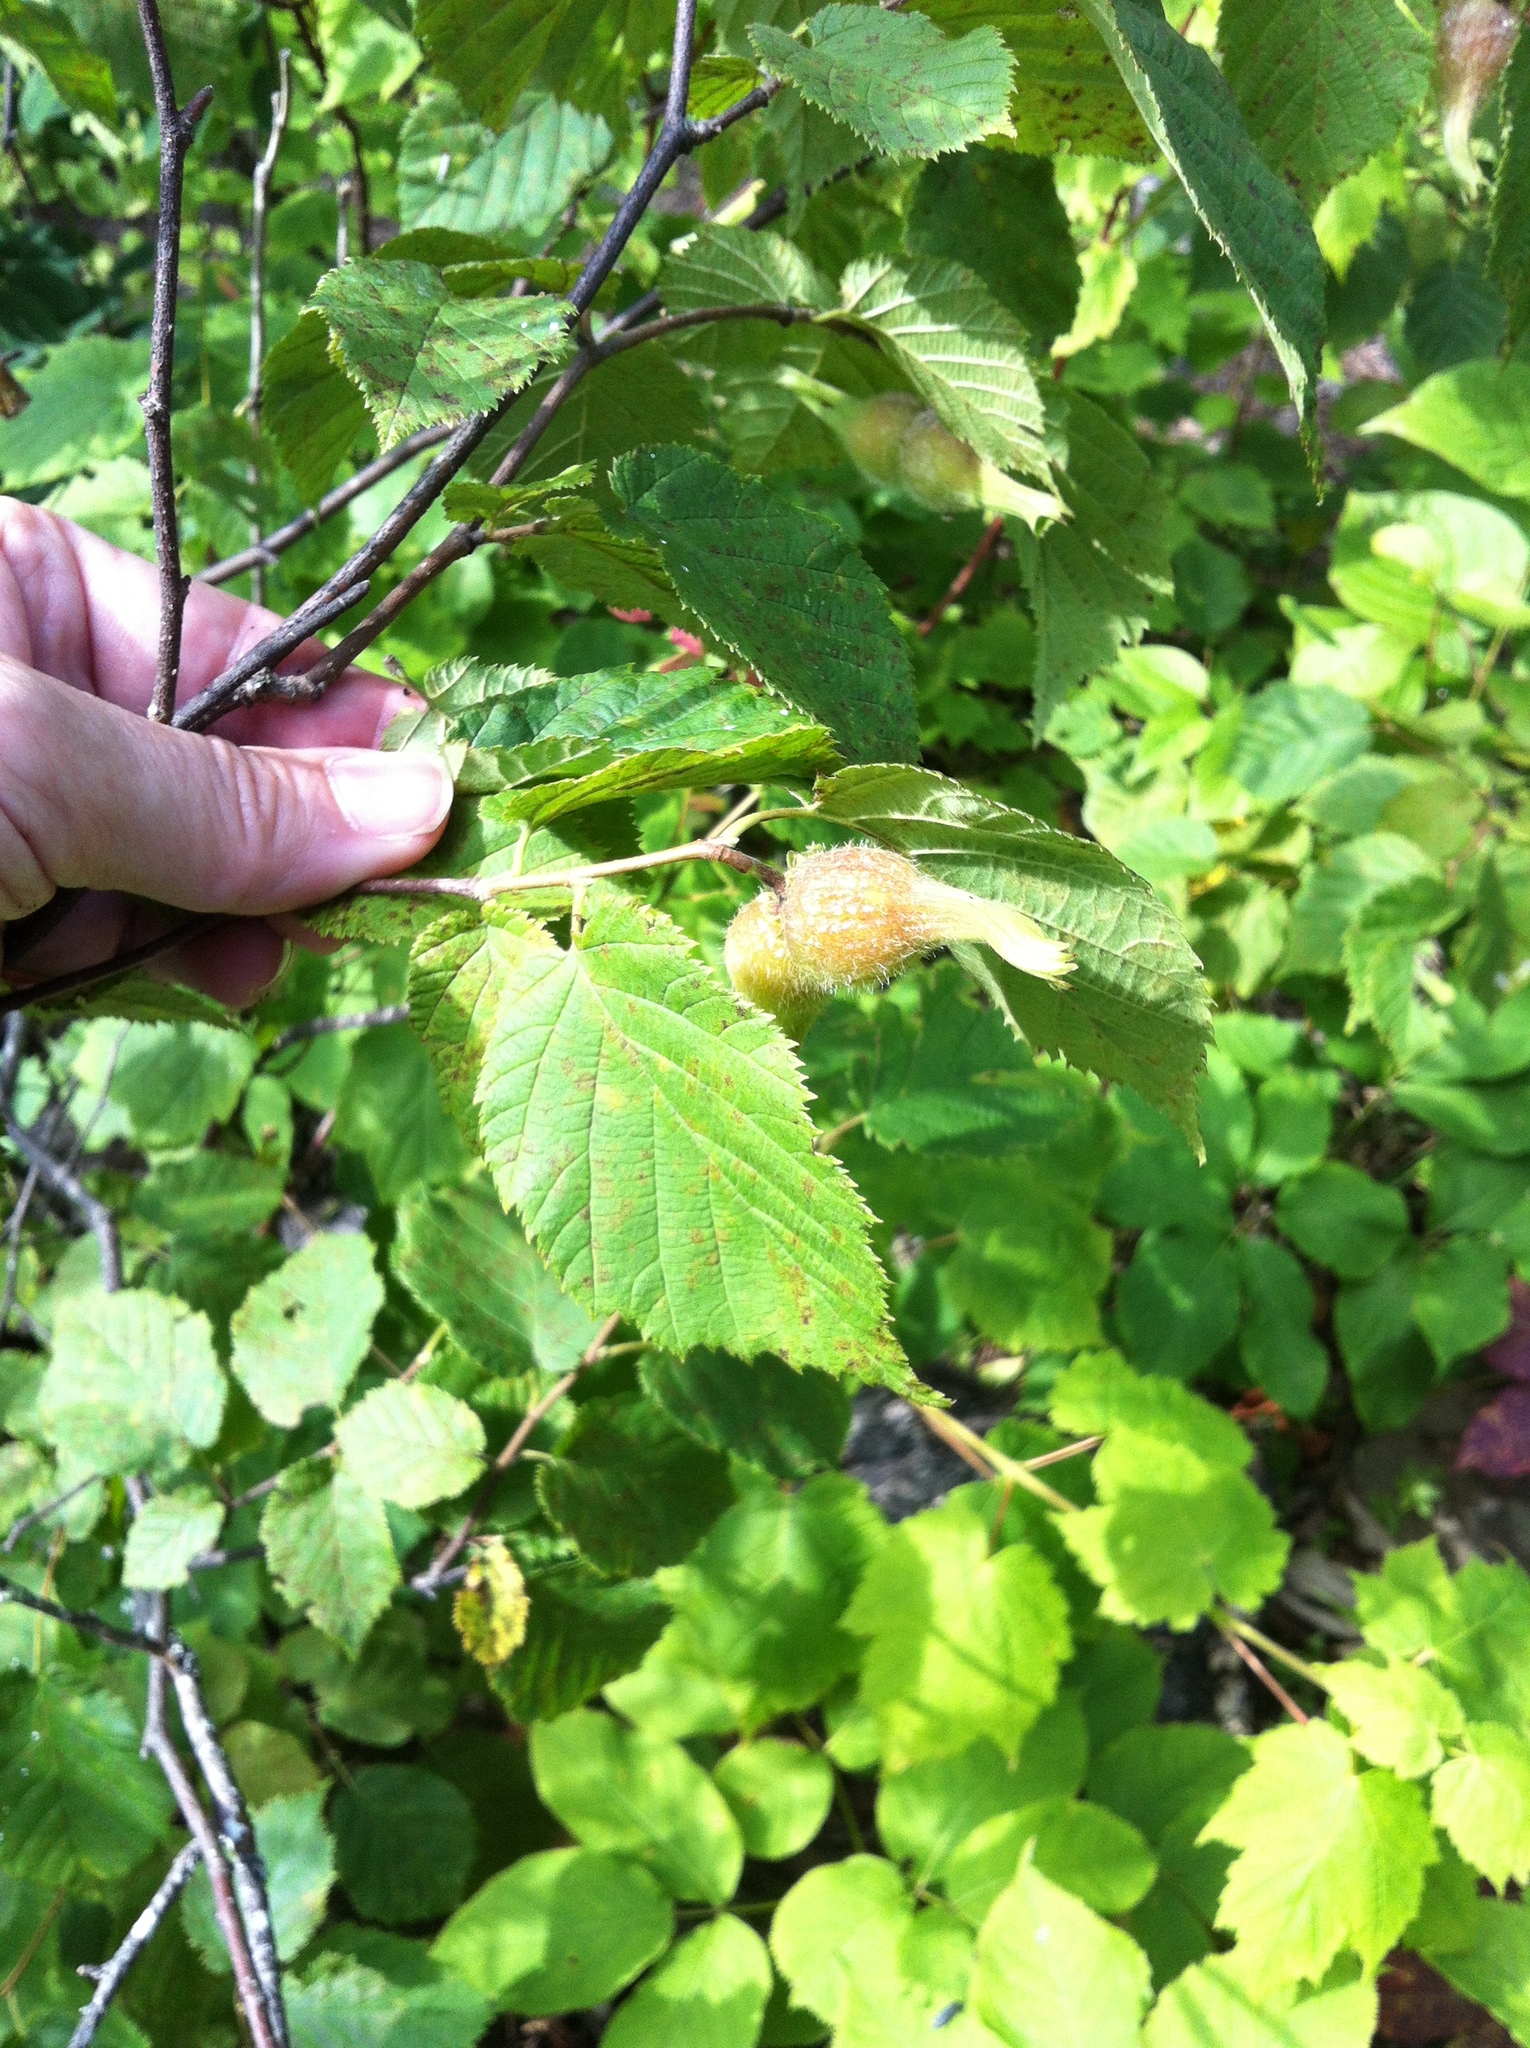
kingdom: Plantae
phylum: Tracheophyta
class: Magnoliopsida
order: Fagales
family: Betulaceae
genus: Corylus
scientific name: Corylus cornuta
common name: Beaked hazel
